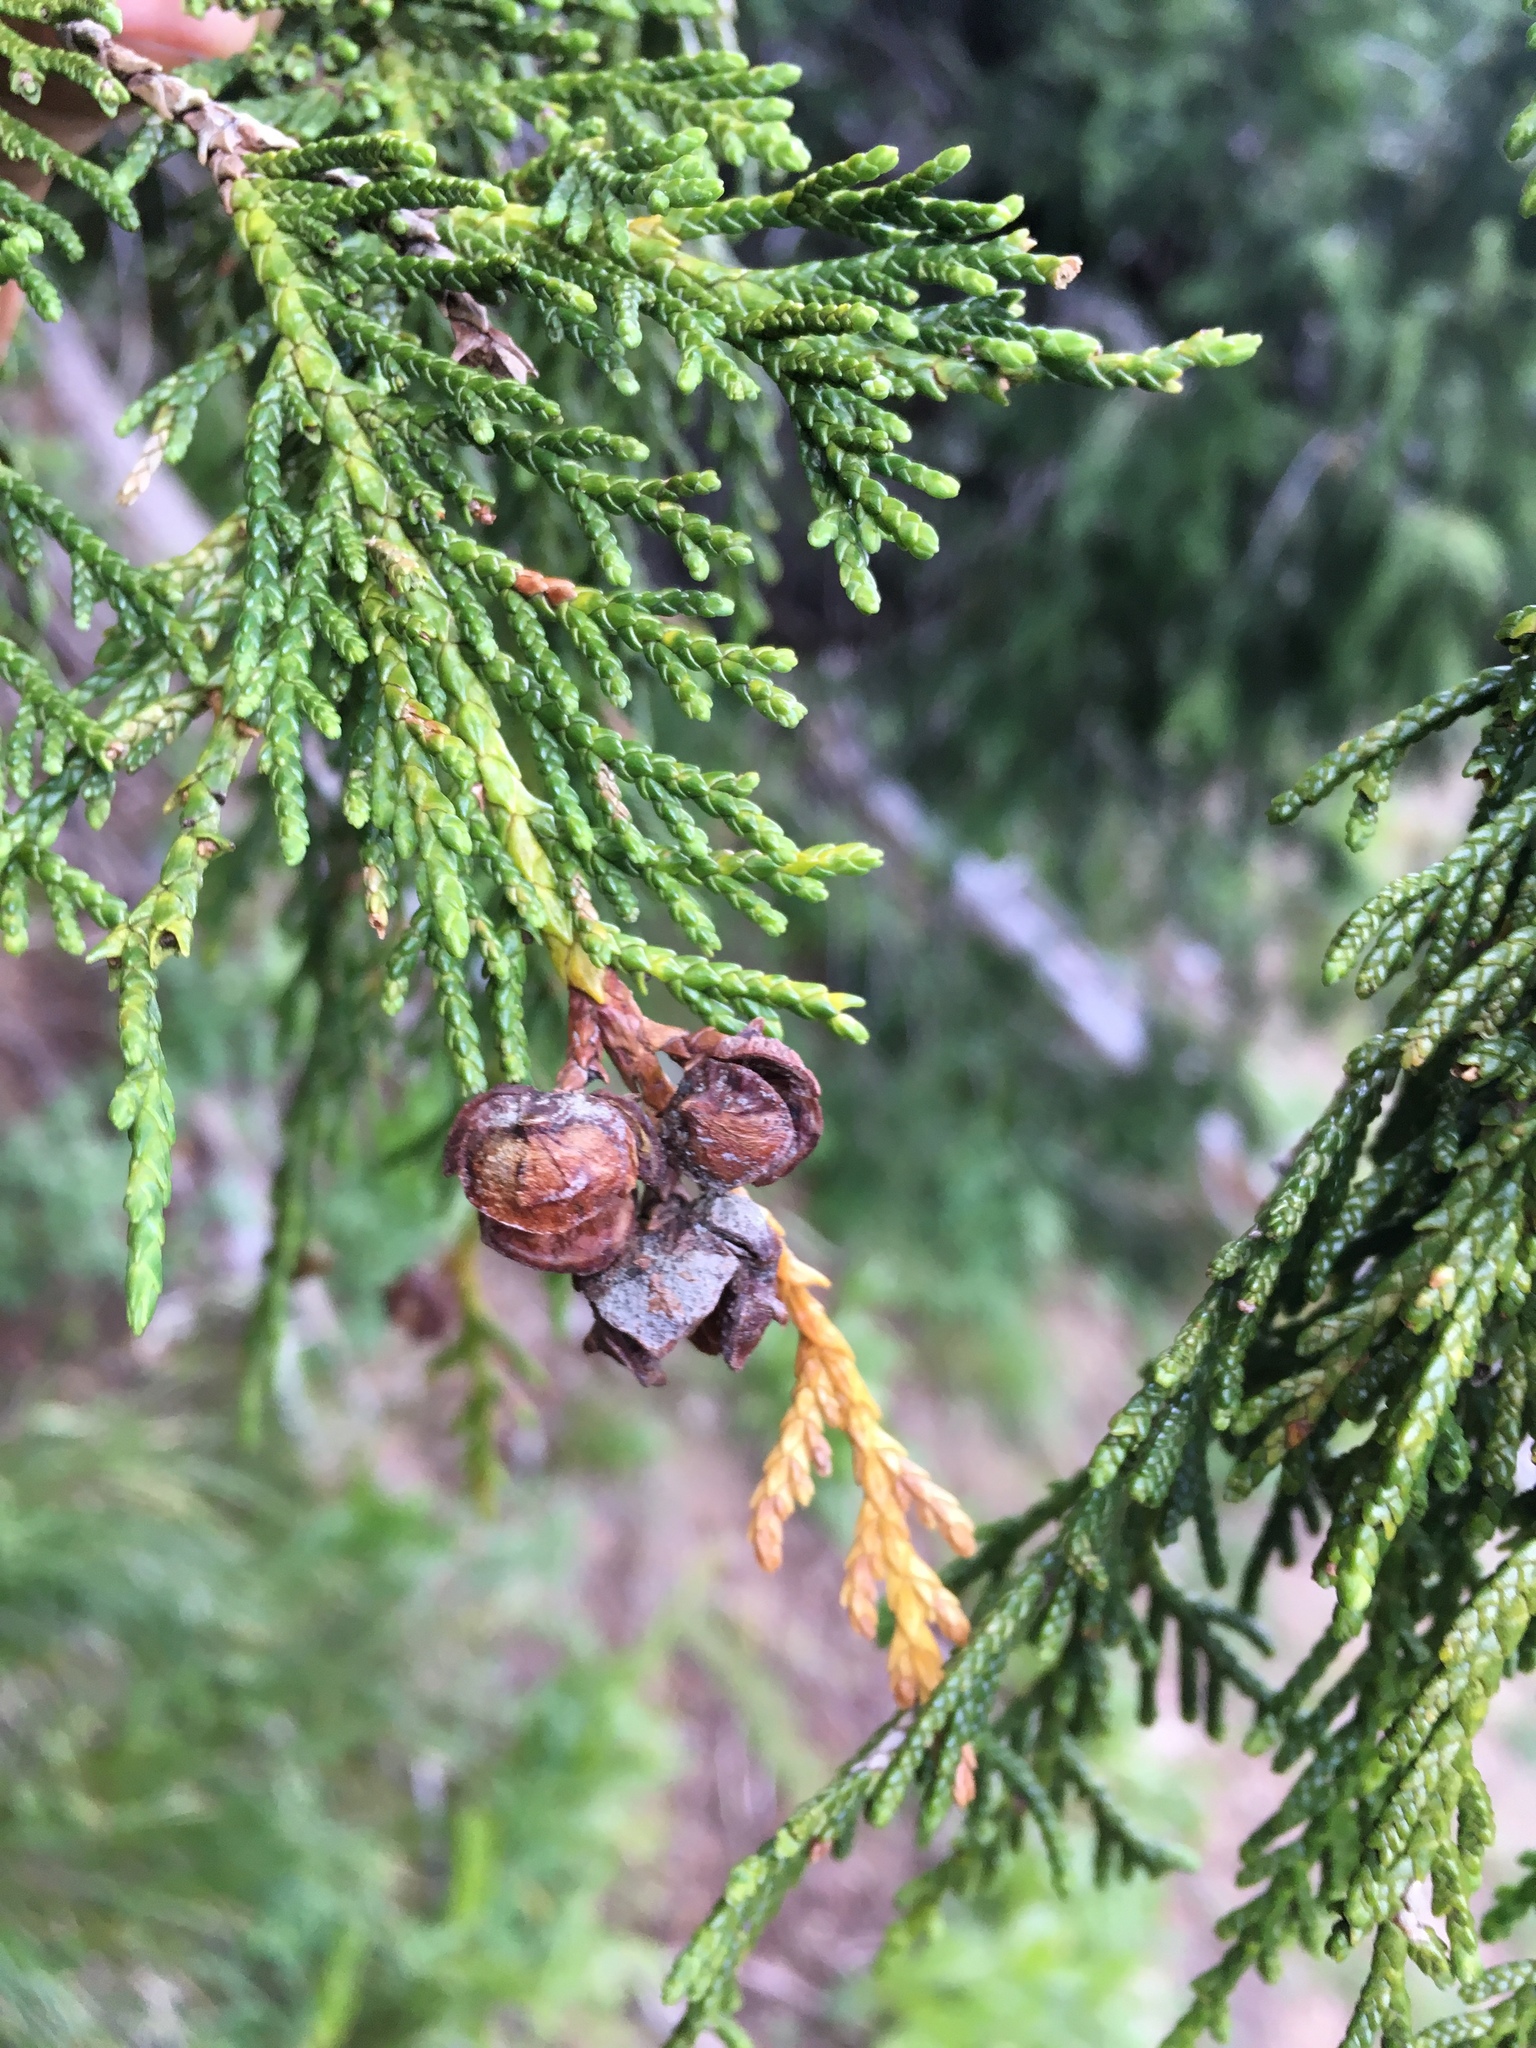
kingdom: Plantae
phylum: Tracheophyta
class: Pinopsida
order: Pinales
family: Cupressaceae
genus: Xanthocyparis
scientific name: Xanthocyparis nootkatensis
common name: Nootka cypress
